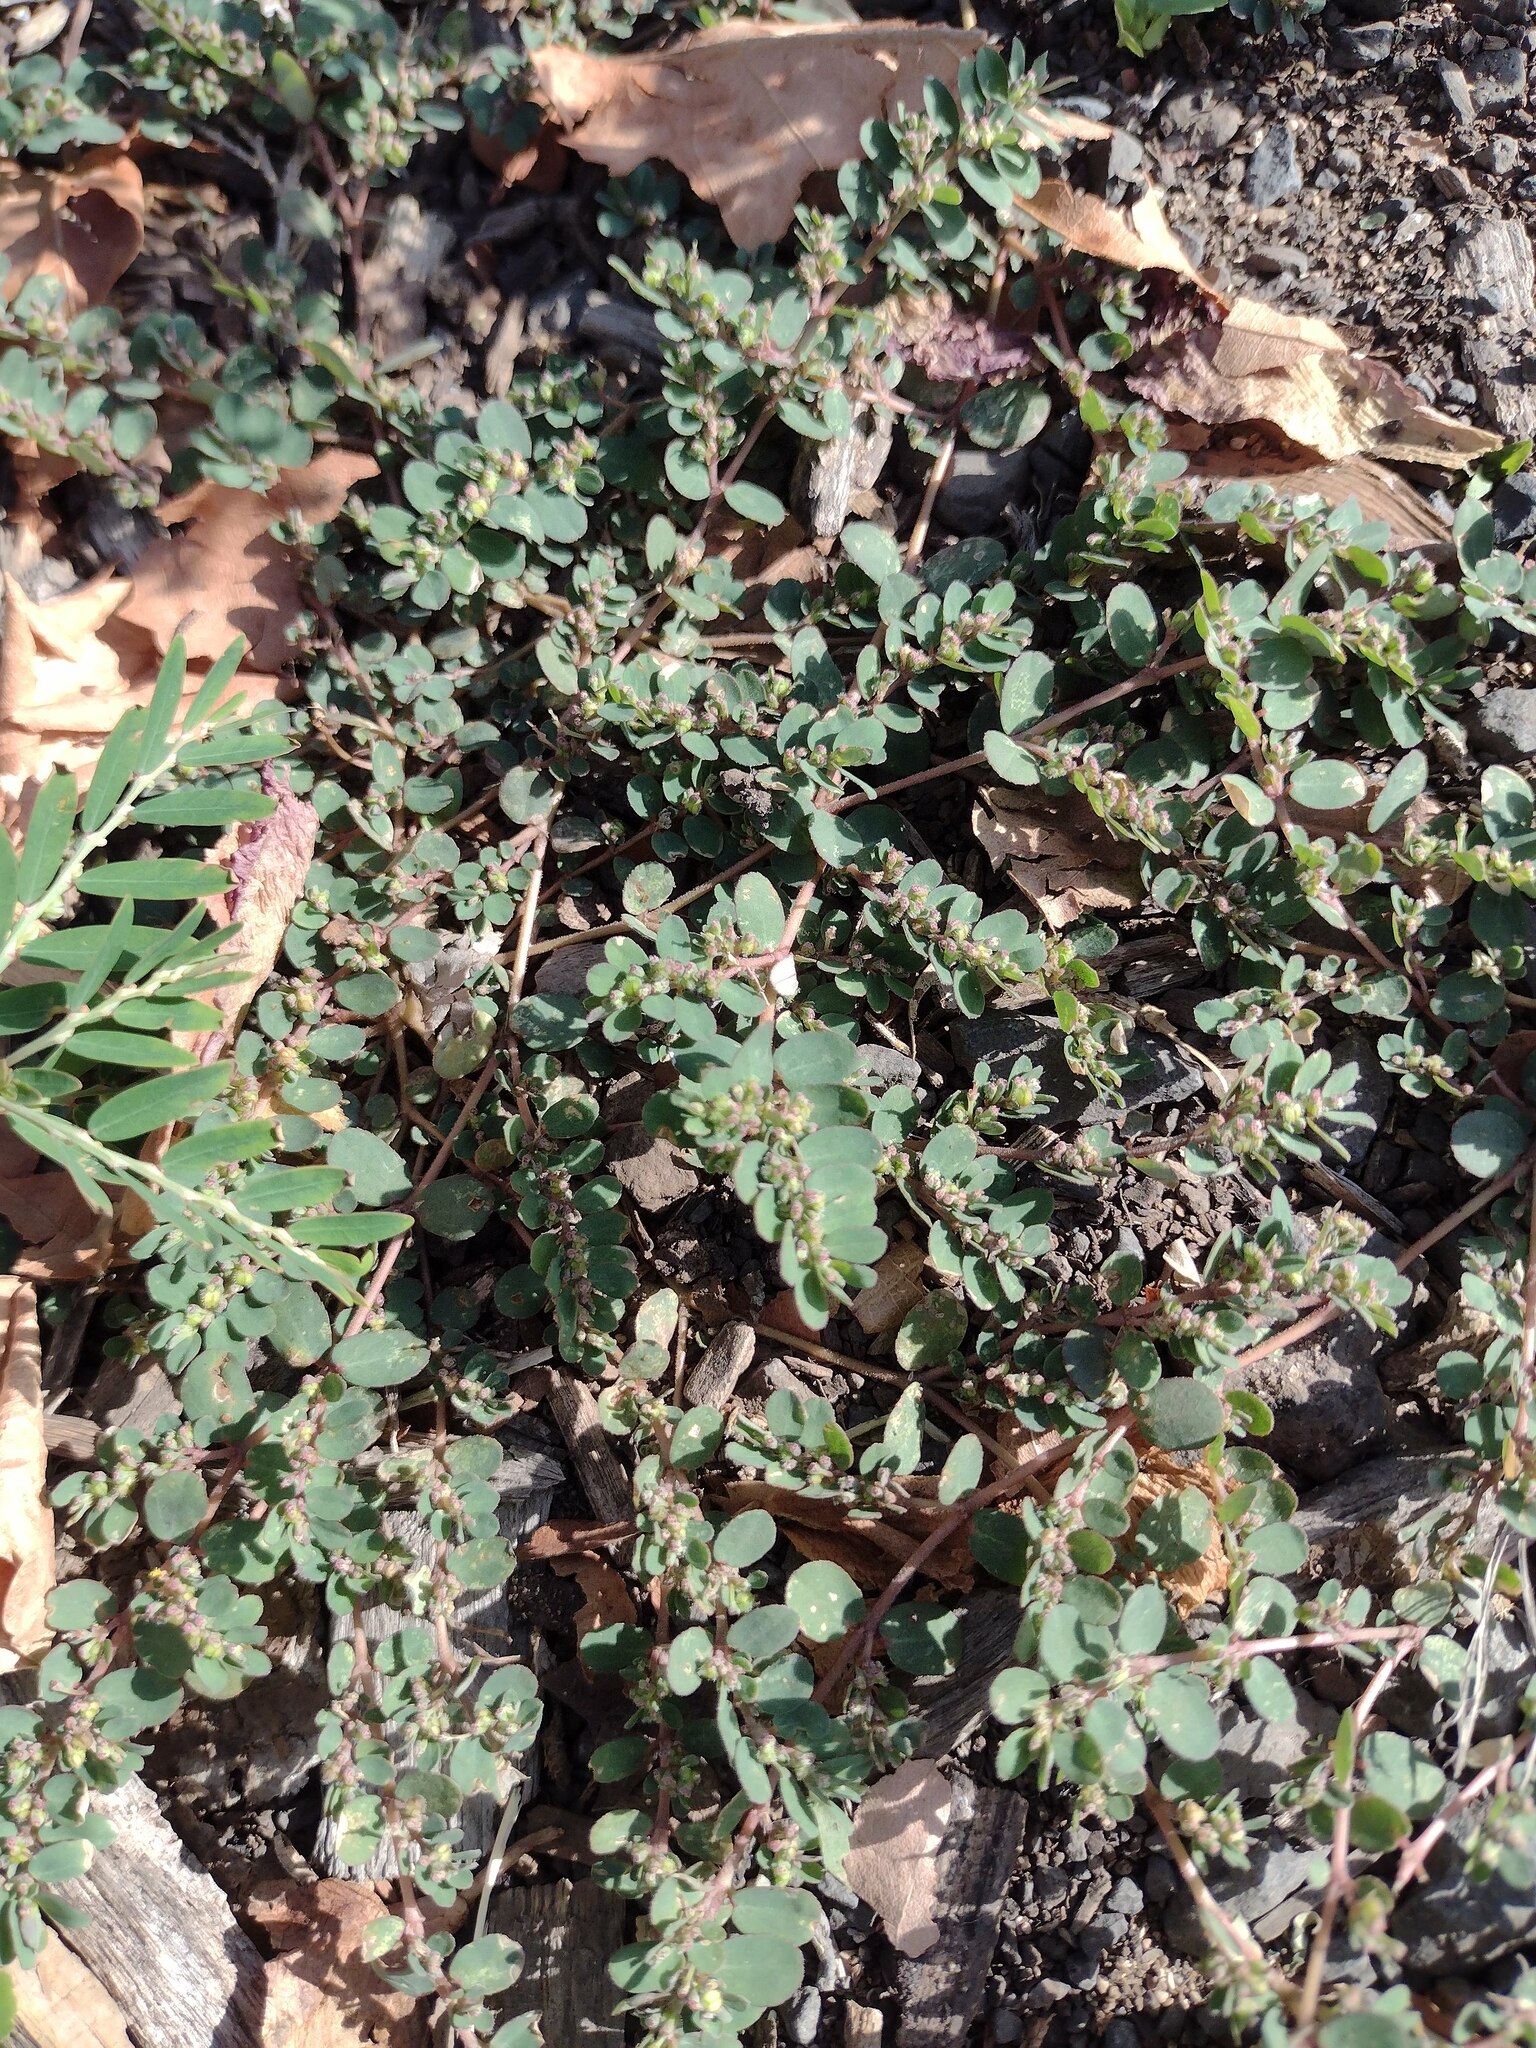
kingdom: Plantae
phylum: Tracheophyta
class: Magnoliopsida
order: Malpighiales
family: Euphorbiaceae
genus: Euphorbia
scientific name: Euphorbia prostrata
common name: Prostrate sandmat
